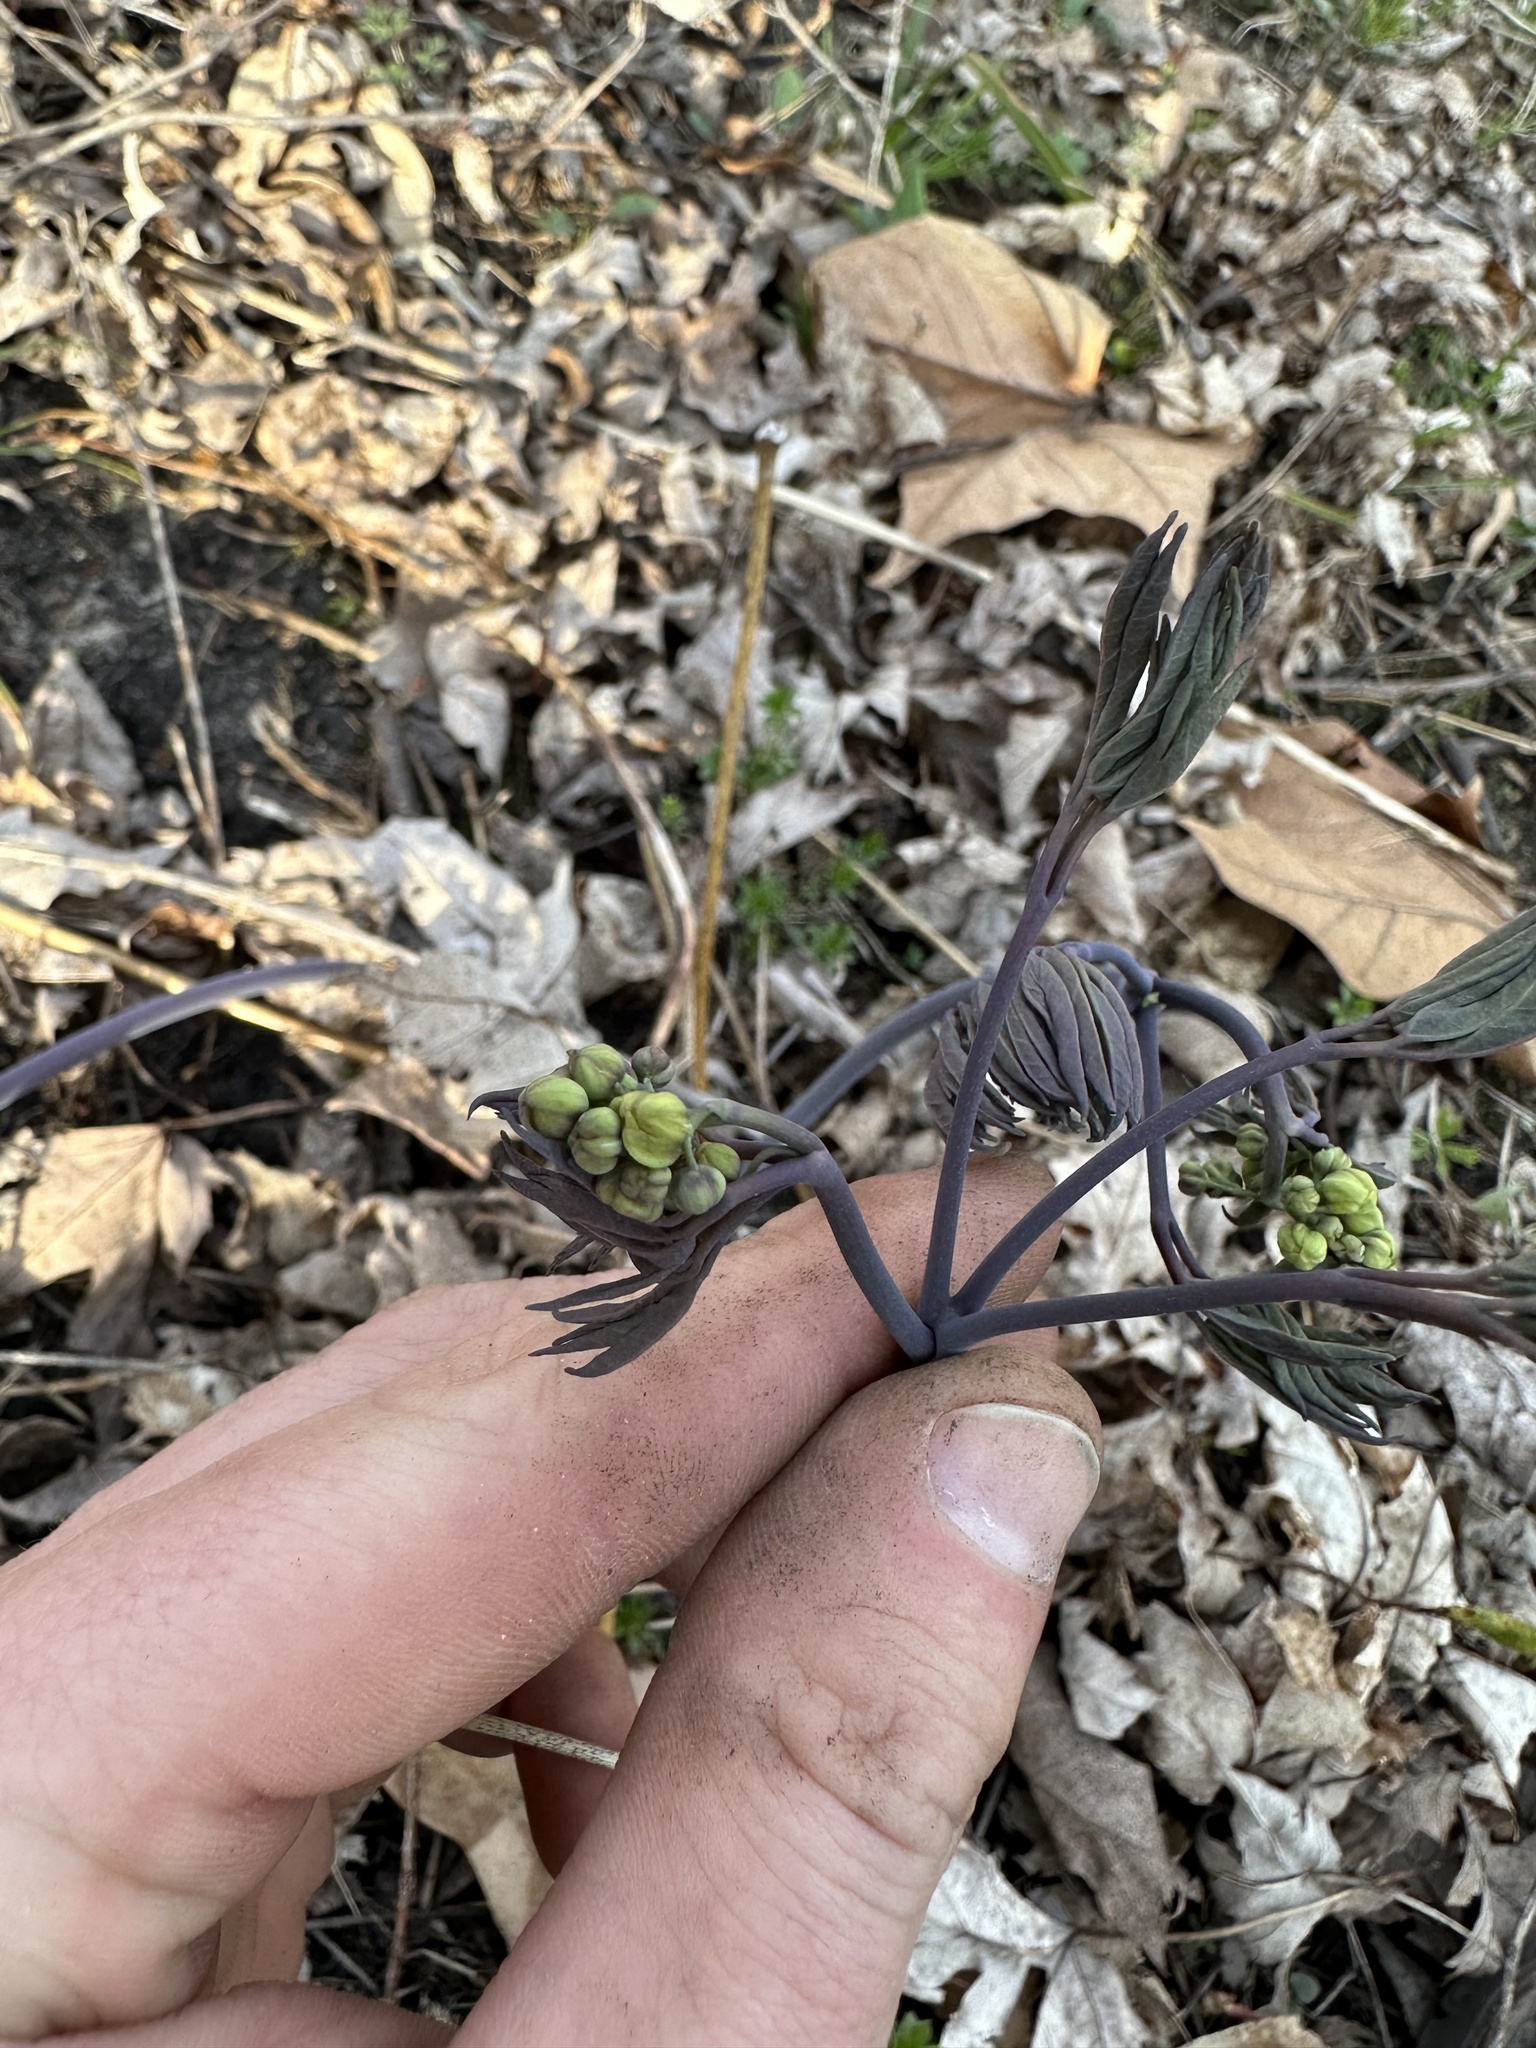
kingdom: Plantae
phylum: Tracheophyta
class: Magnoliopsida
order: Ranunculales
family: Berberidaceae
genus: Caulophyllum
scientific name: Caulophyllum giganteum
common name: Blue cohosh
